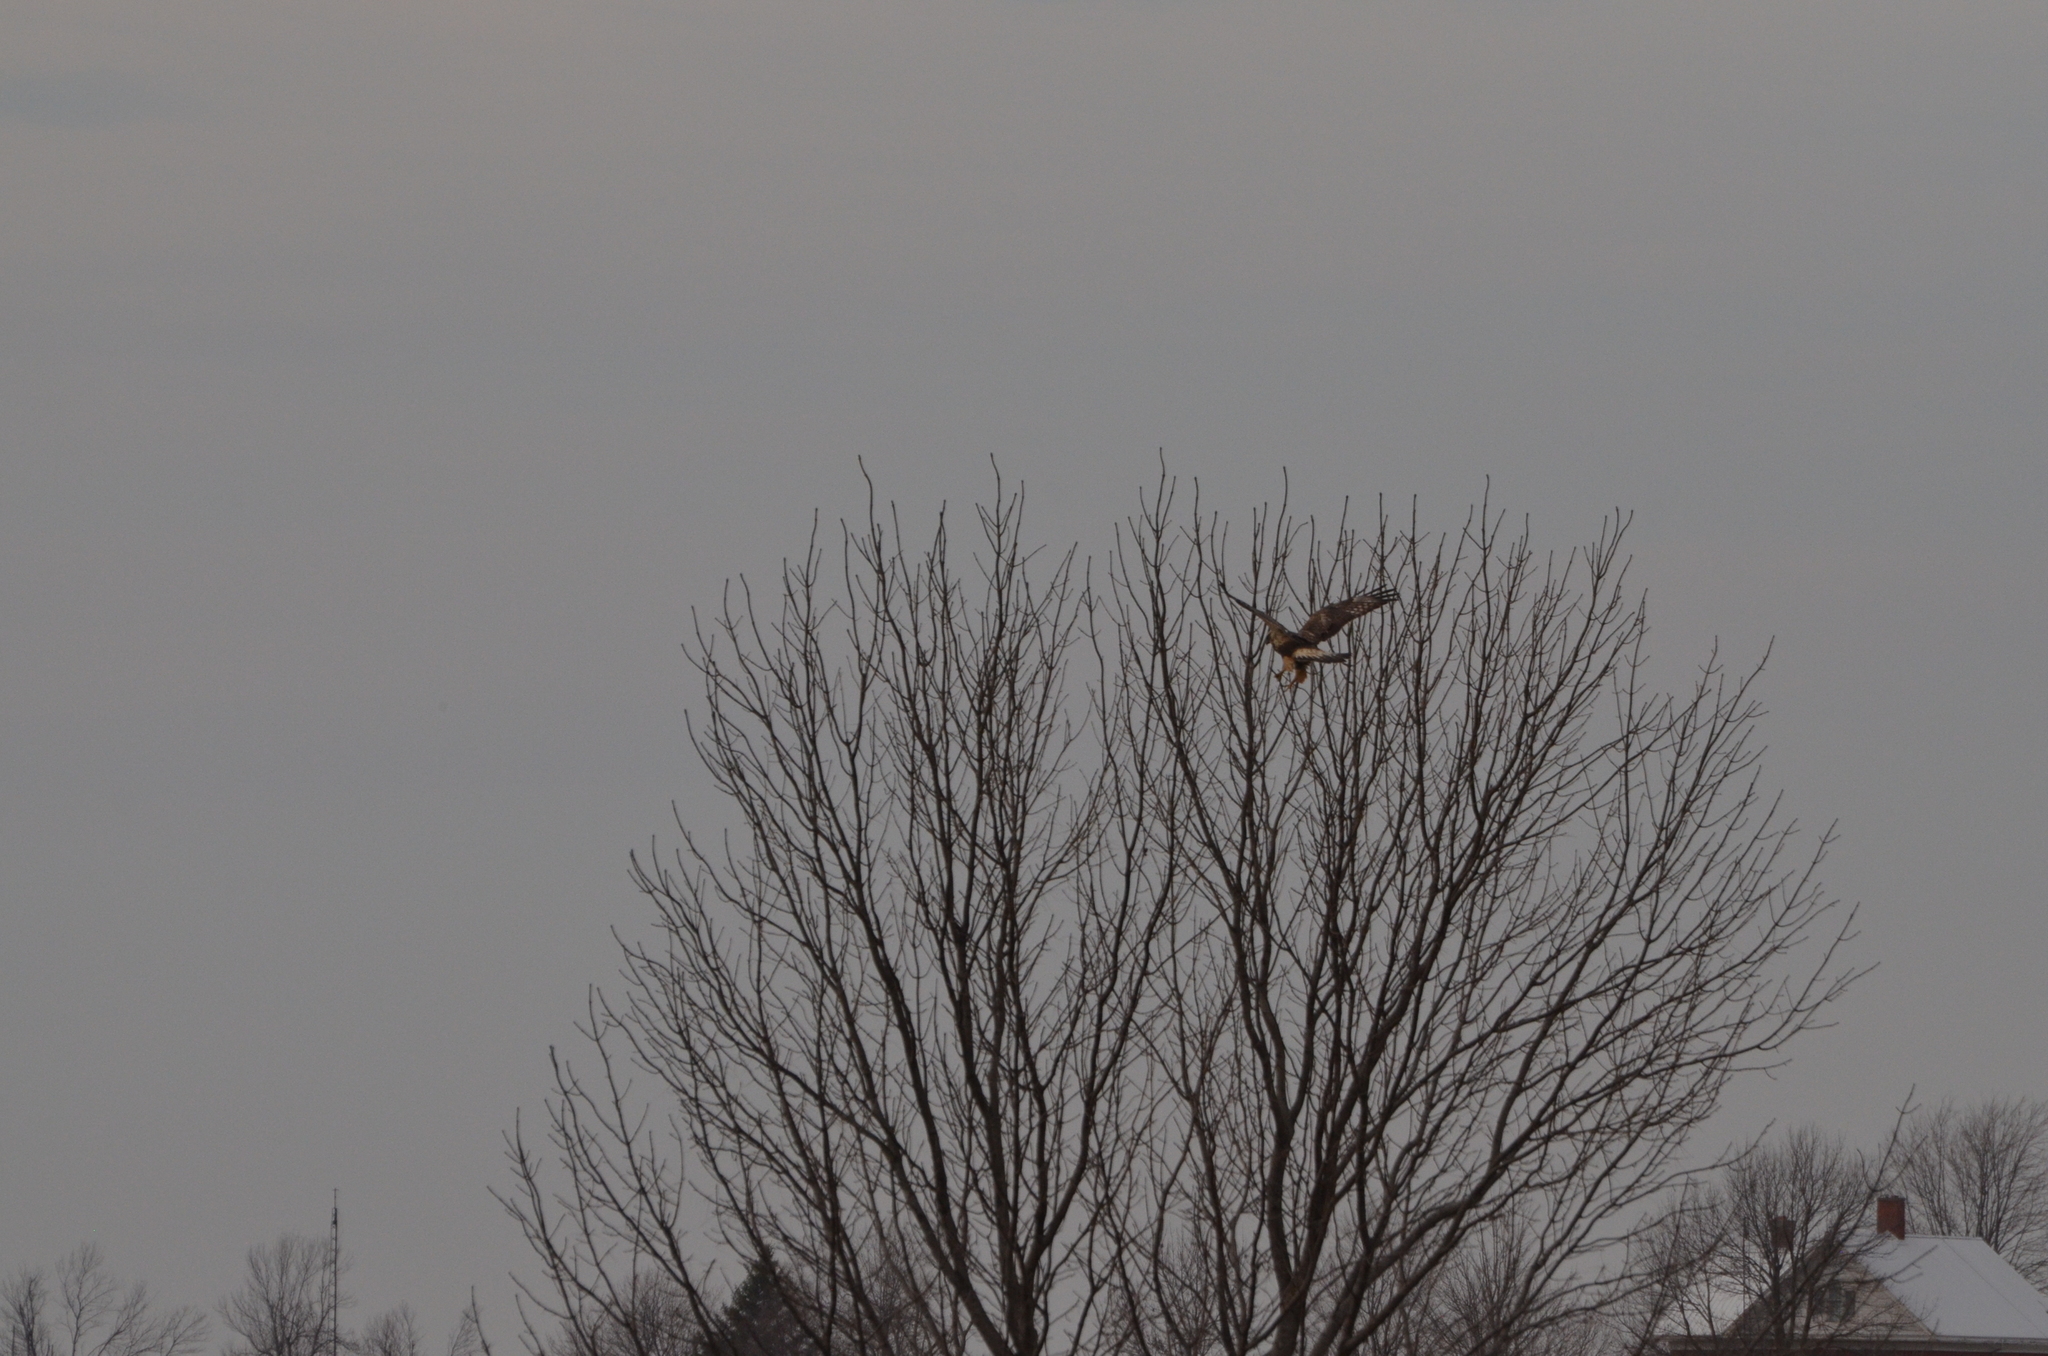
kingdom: Animalia
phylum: Chordata
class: Aves
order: Accipitriformes
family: Accipitridae
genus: Buteo
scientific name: Buteo lagopus
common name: Rough-legged buzzard
